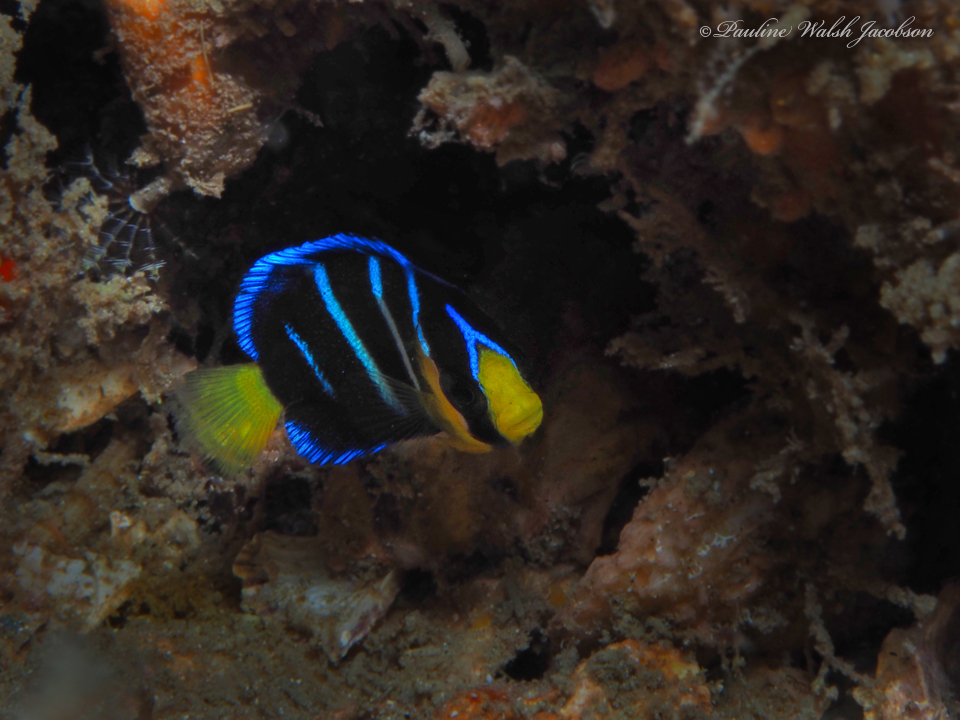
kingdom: Animalia
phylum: Chordata
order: Perciformes
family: Pomacanthidae
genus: Holacanthus
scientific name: Holacanthus bermudensis
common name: Blue angelfish
